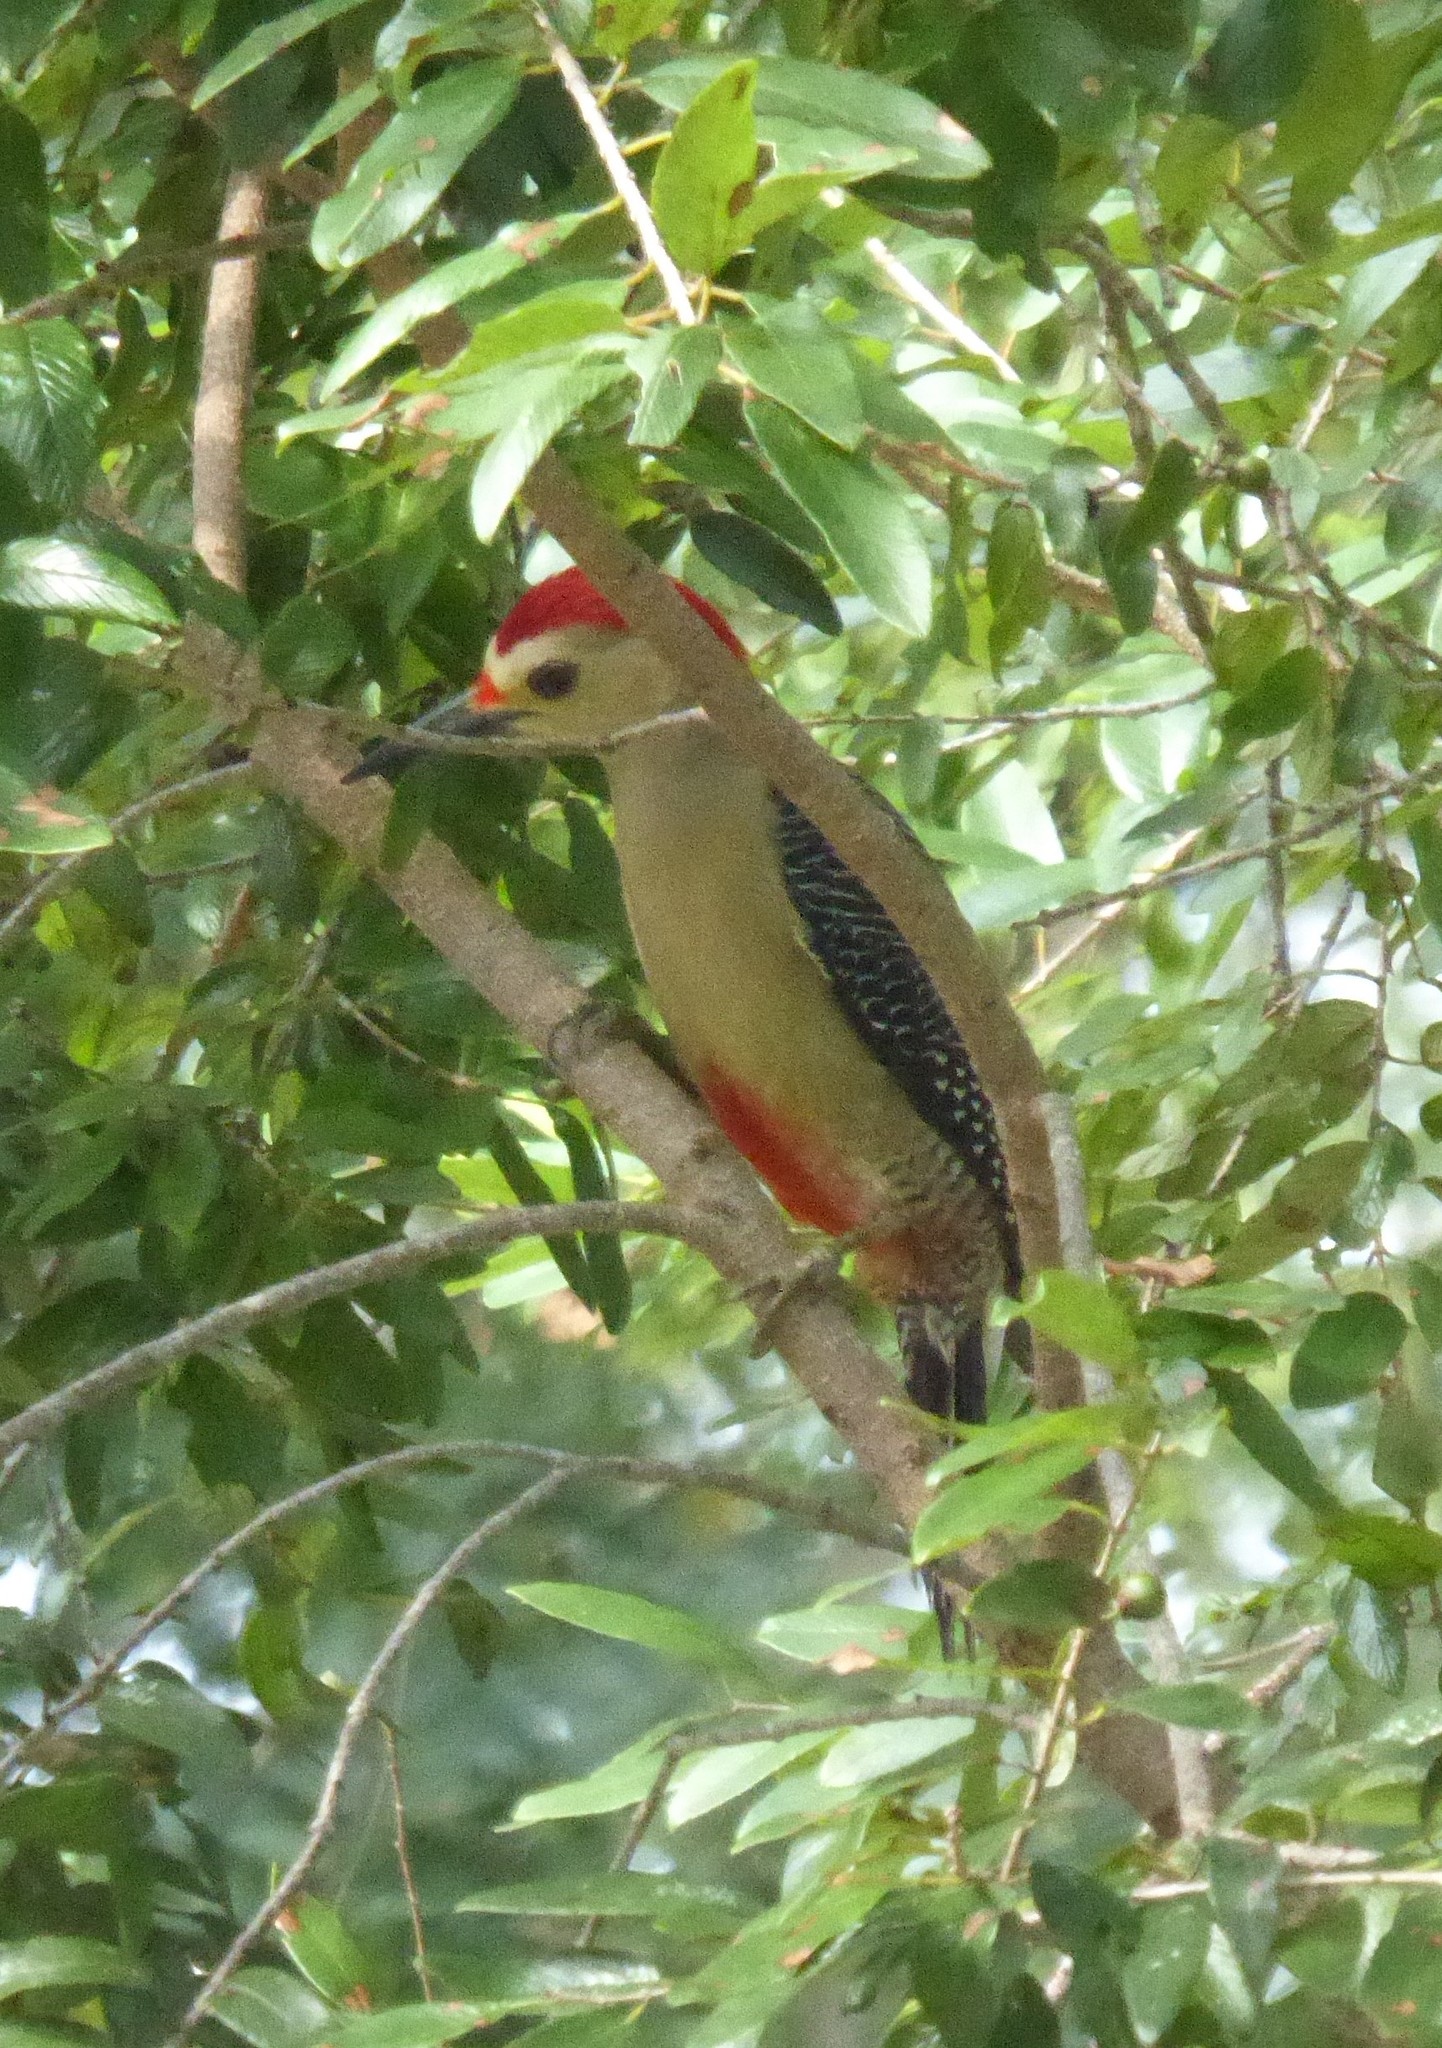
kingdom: Animalia
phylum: Chordata
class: Aves
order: Piciformes
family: Picidae
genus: Melanerpes
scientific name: Melanerpes santacruzi
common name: Velasquez's woodpecker
